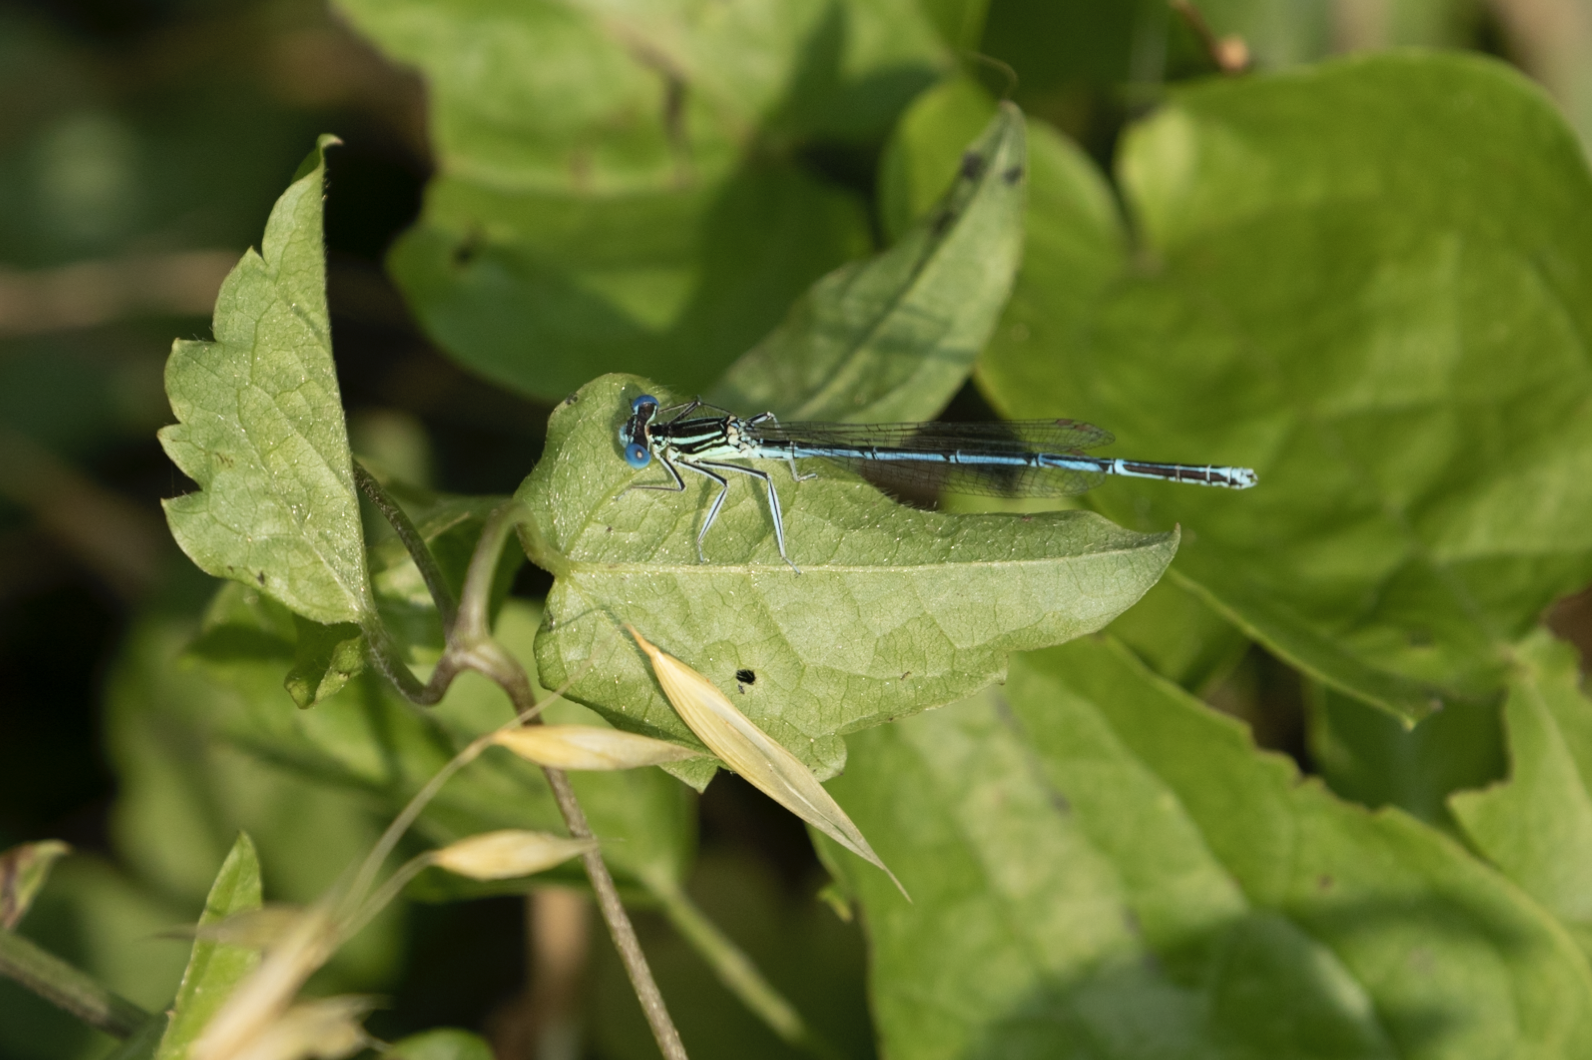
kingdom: Animalia
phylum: Arthropoda
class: Insecta
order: Odonata
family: Platycnemididae
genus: Platycnemis
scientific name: Platycnemis pennipes
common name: White-legged damselfly
